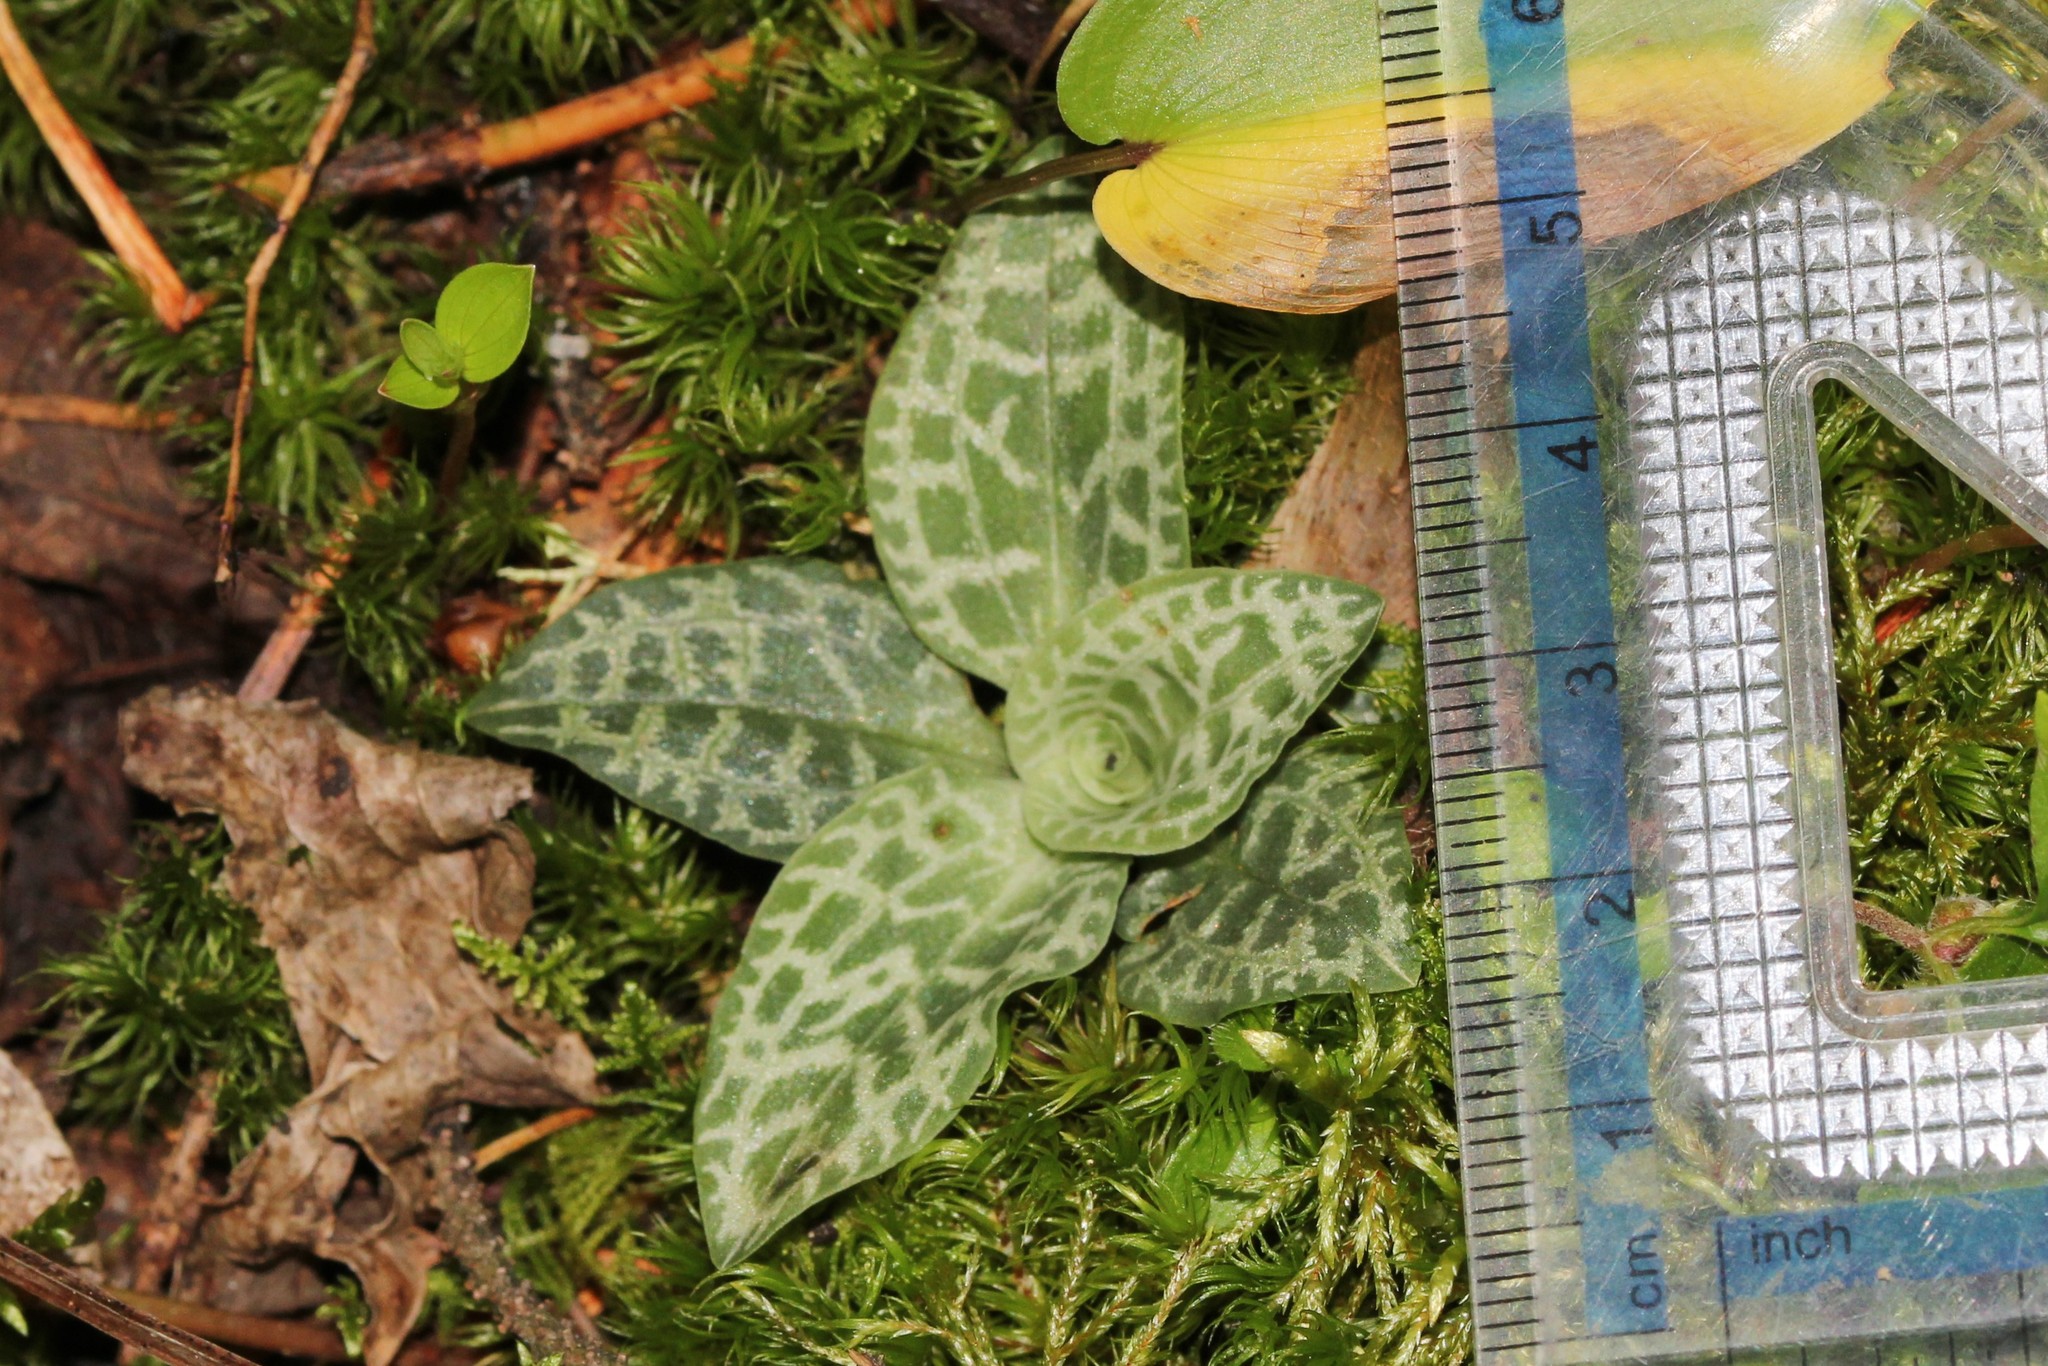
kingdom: Plantae
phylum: Tracheophyta
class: Liliopsida
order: Asparagales
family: Orchidaceae
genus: Goodyera
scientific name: Goodyera tesselata
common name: Checkered rattlesnake-plantain
